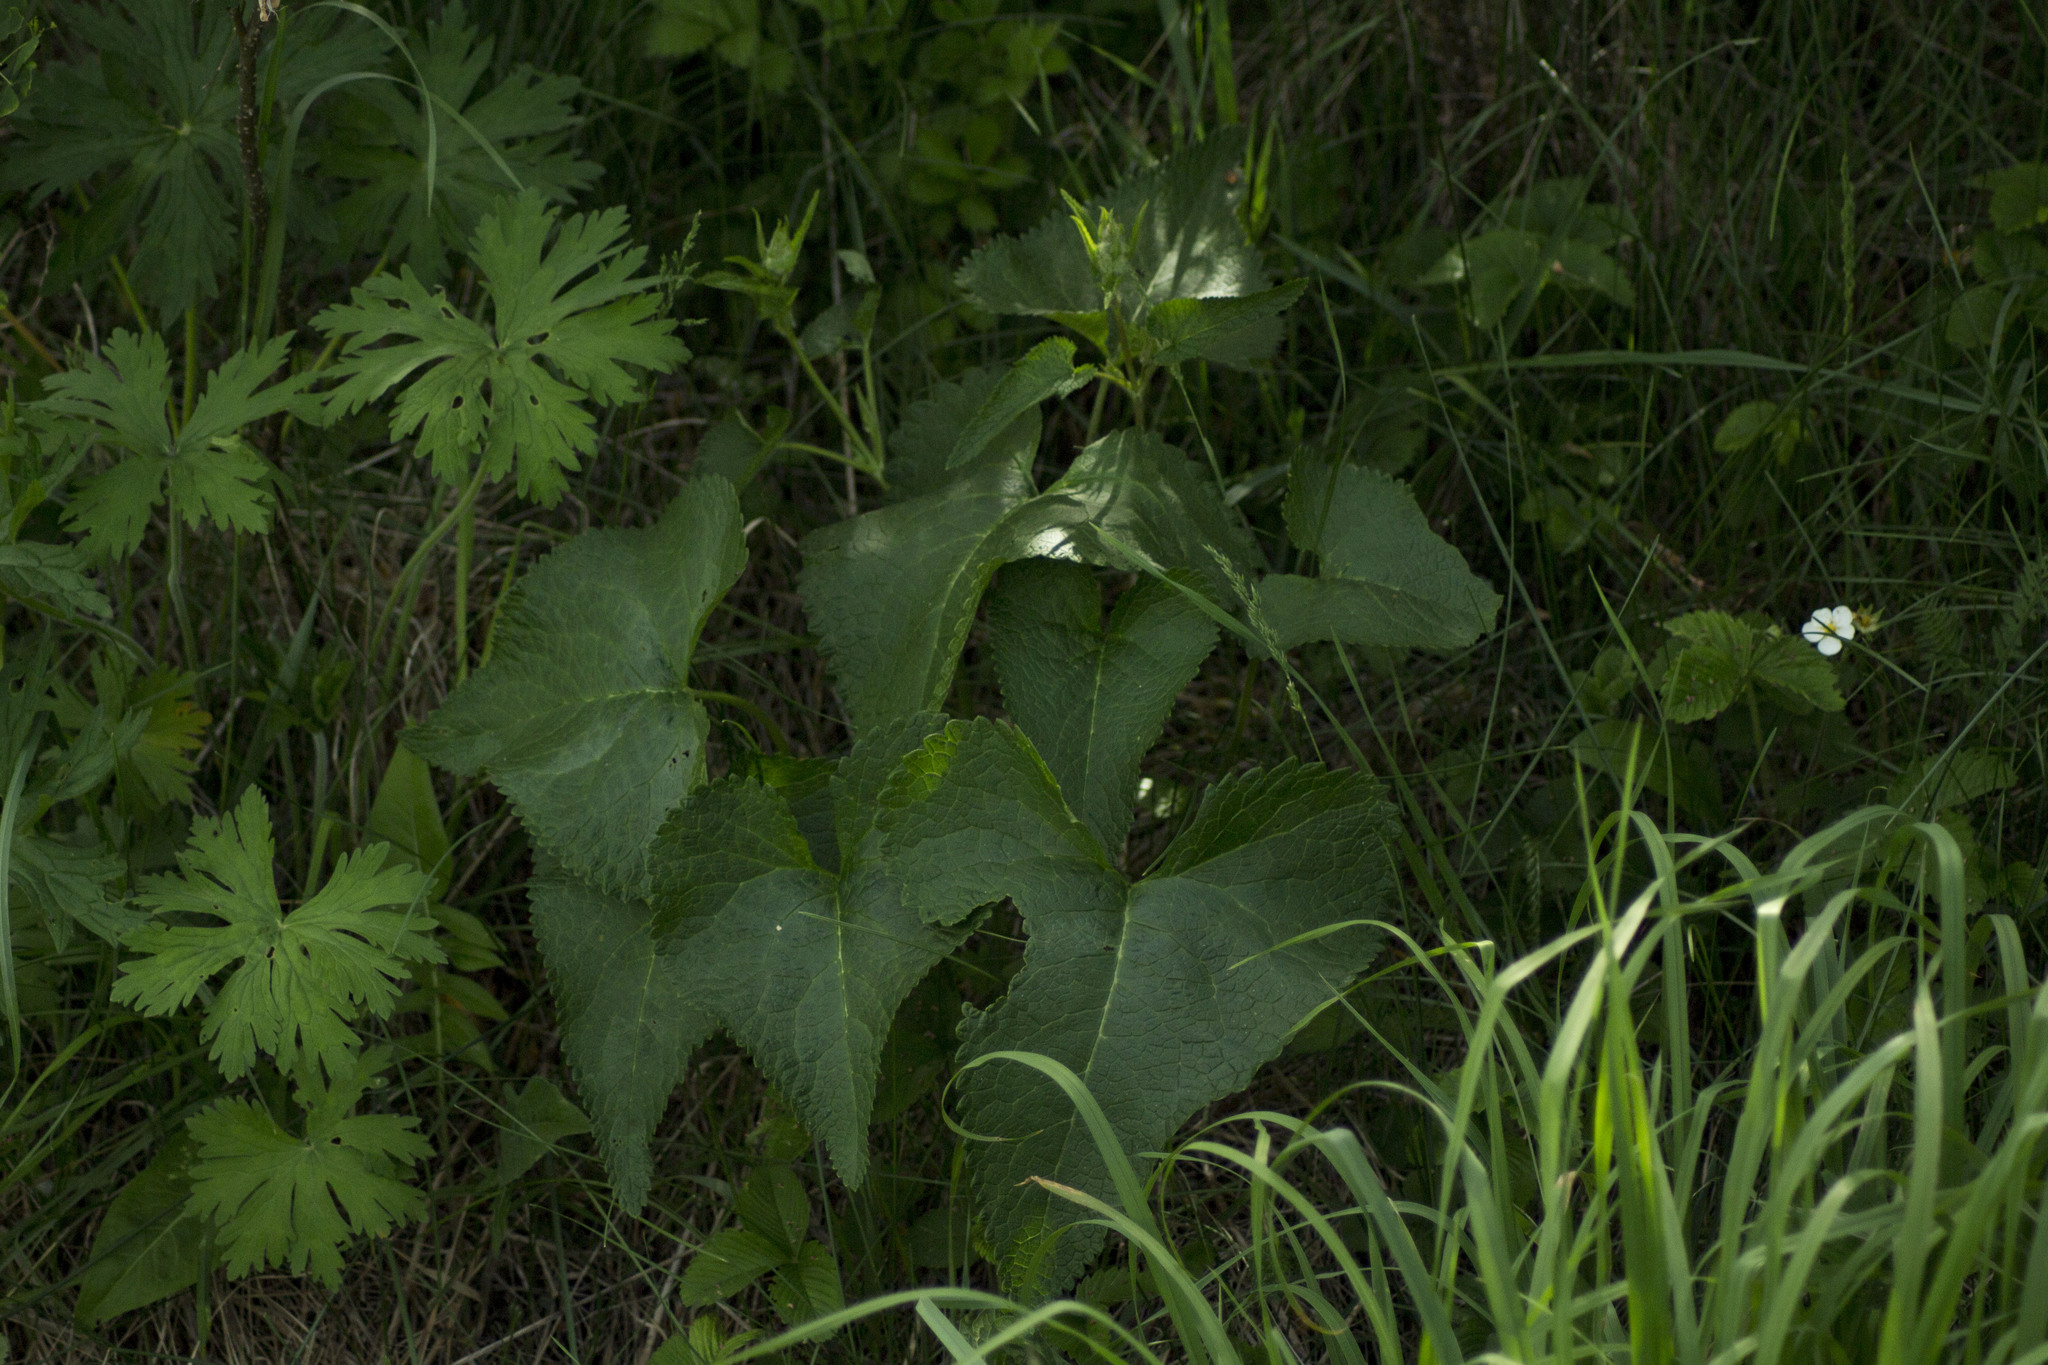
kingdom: Plantae
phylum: Tracheophyta
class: Magnoliopsida
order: Lamiales
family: Lamiaceae
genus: Phlomoides
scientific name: Phlomoides tuberosa
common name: Tuberous jerusalem sage
